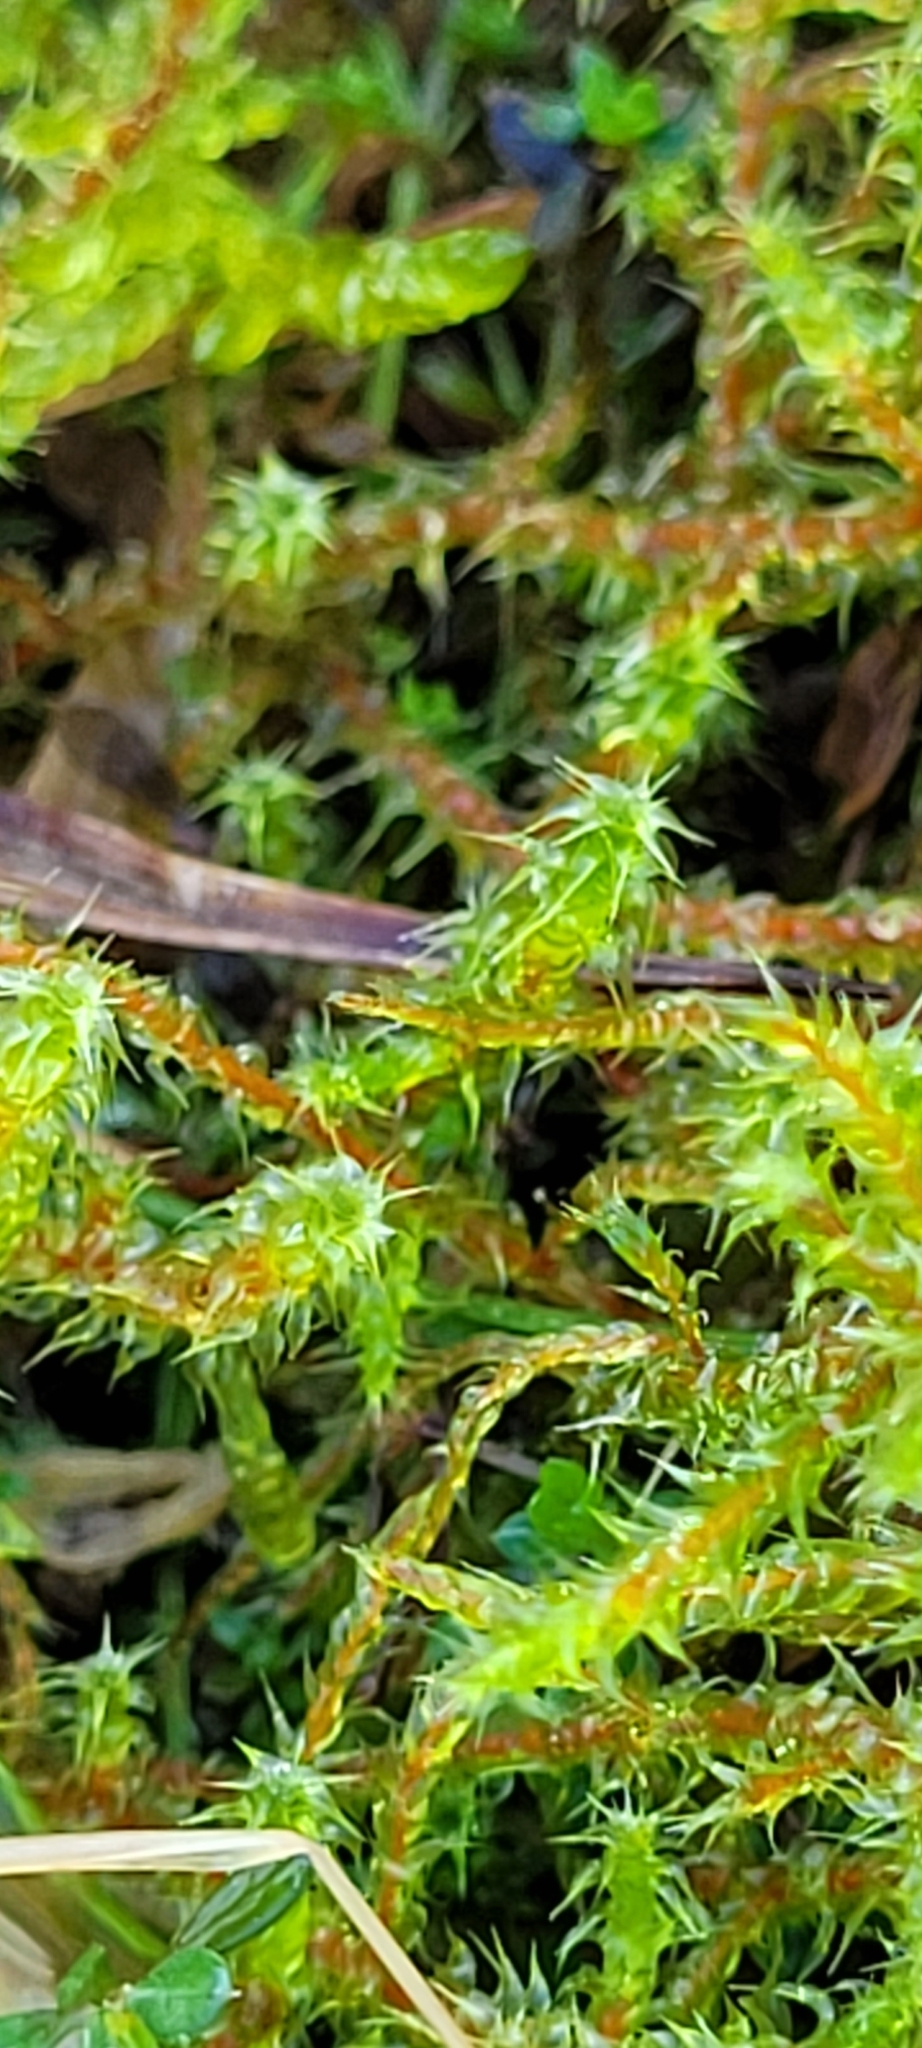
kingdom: Plantae
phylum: Bryophyta
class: Bryopsida
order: Hypnales
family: Hylocomiaceae
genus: Rhytidiadelphus
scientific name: Rhytidiadelphus squarrosus
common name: Springy turf-moss
